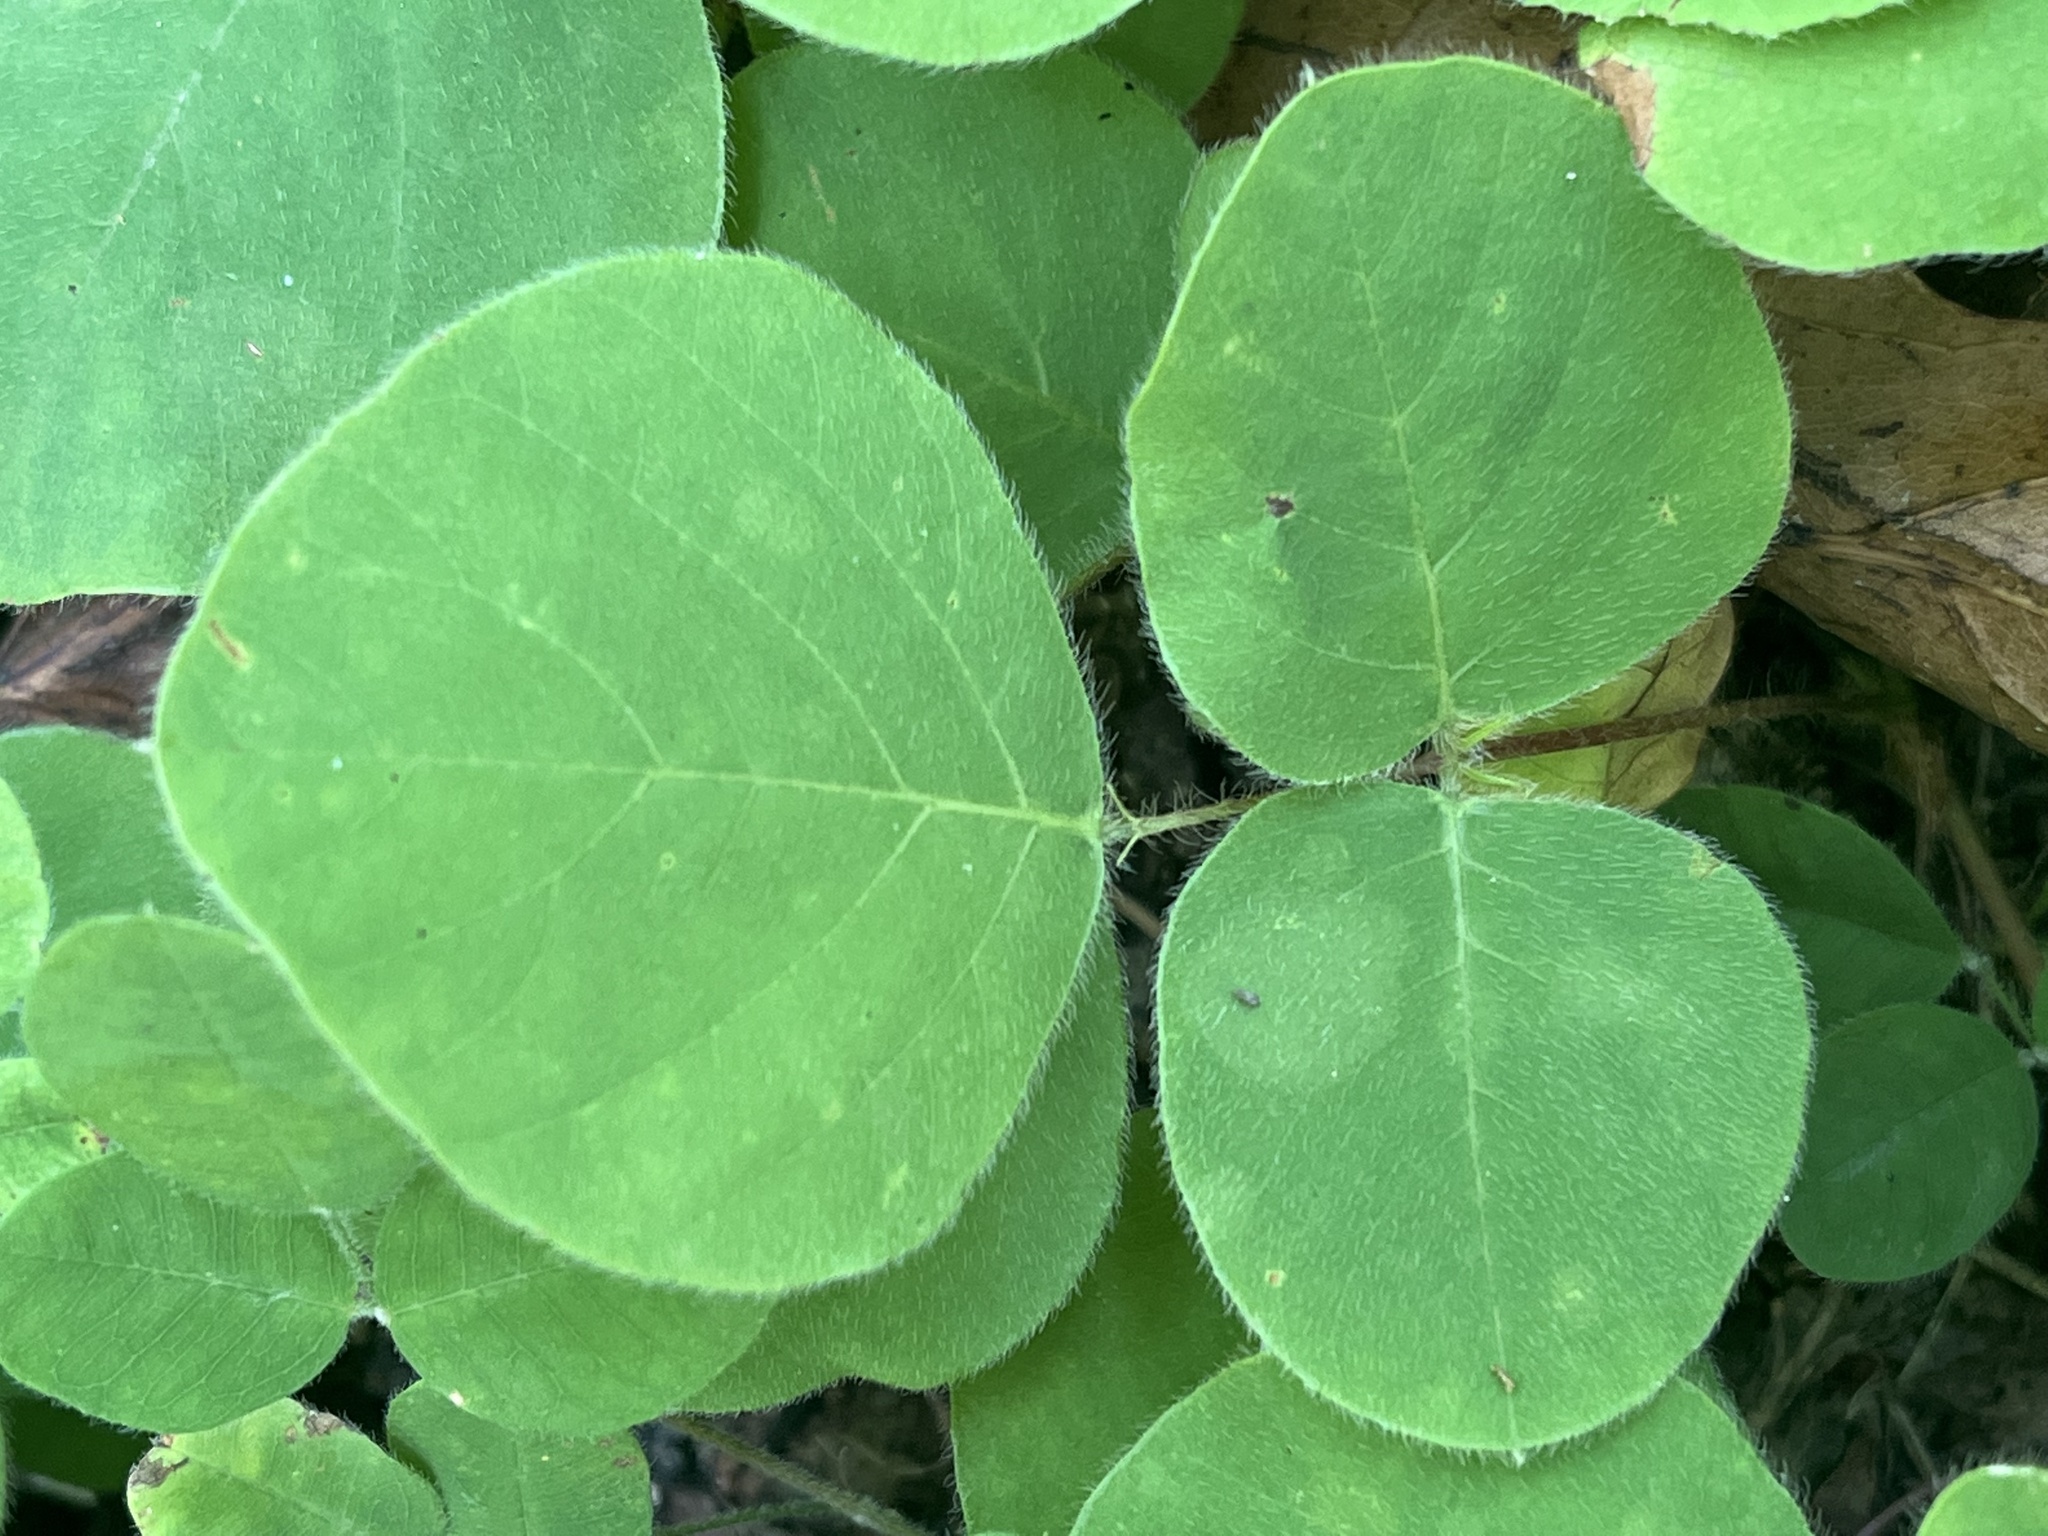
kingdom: Plantae
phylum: Tracheophyta
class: Magnoliopsida
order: Fabales
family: Fabaceae
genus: Desmodium
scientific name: Desmodium rotundifolium
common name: Dollarleaf
